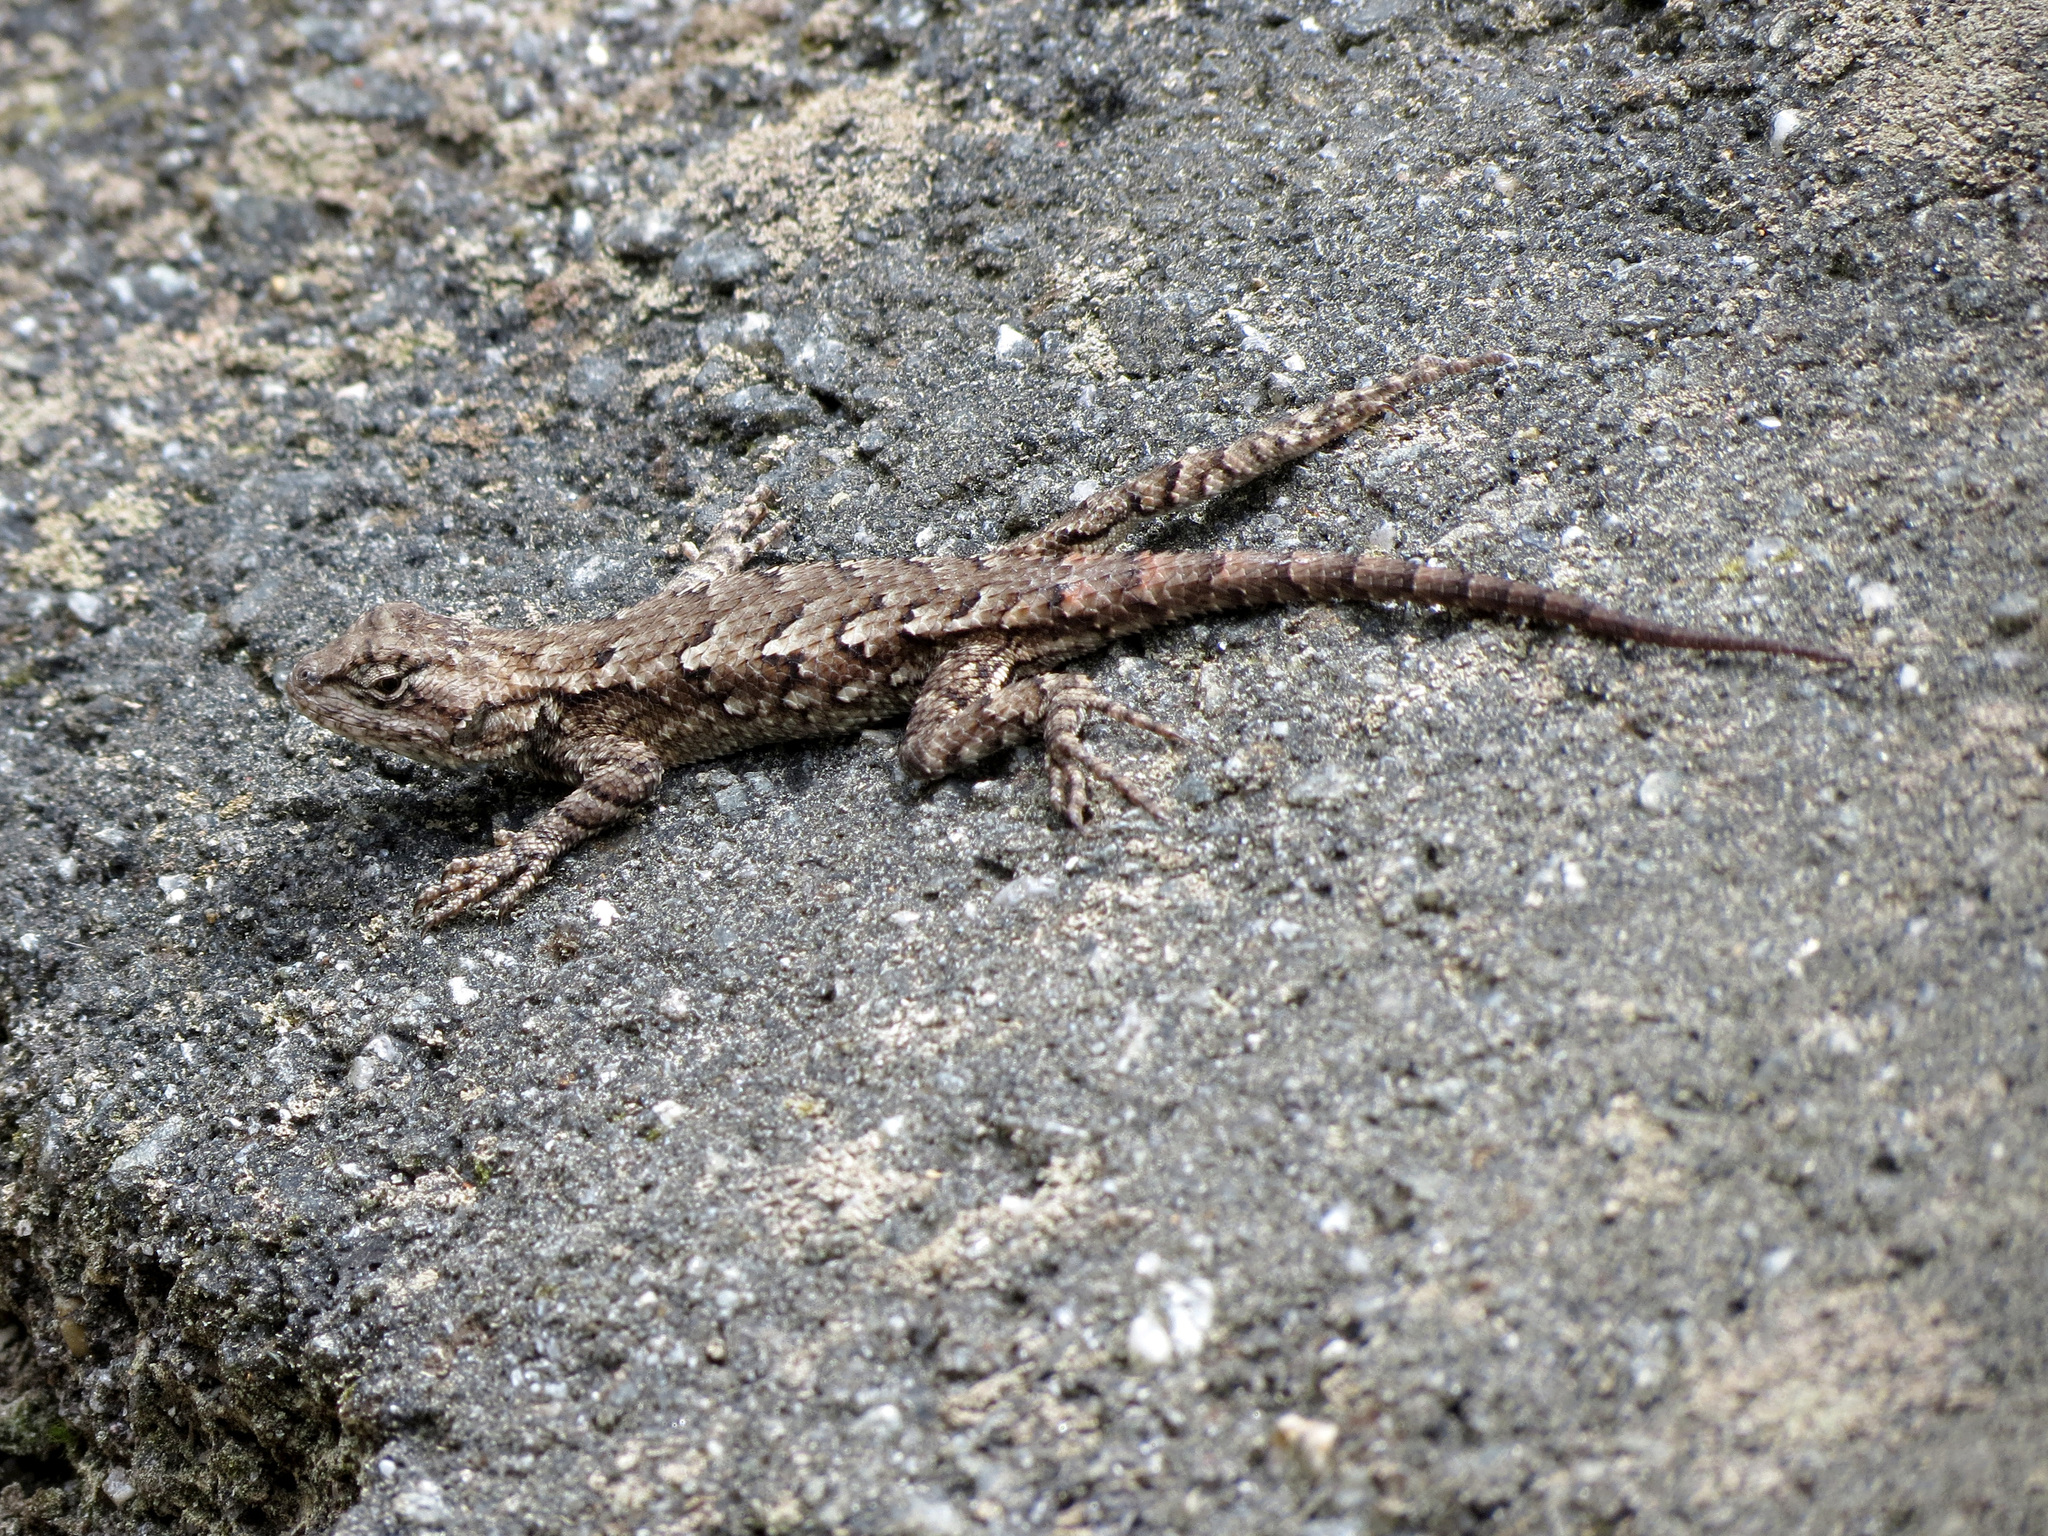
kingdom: Animalia
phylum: Chordata
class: Squamata
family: Phrynosomatidae
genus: Sceloporus
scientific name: Sceloporus undulatus
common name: Eastern fence lizard
